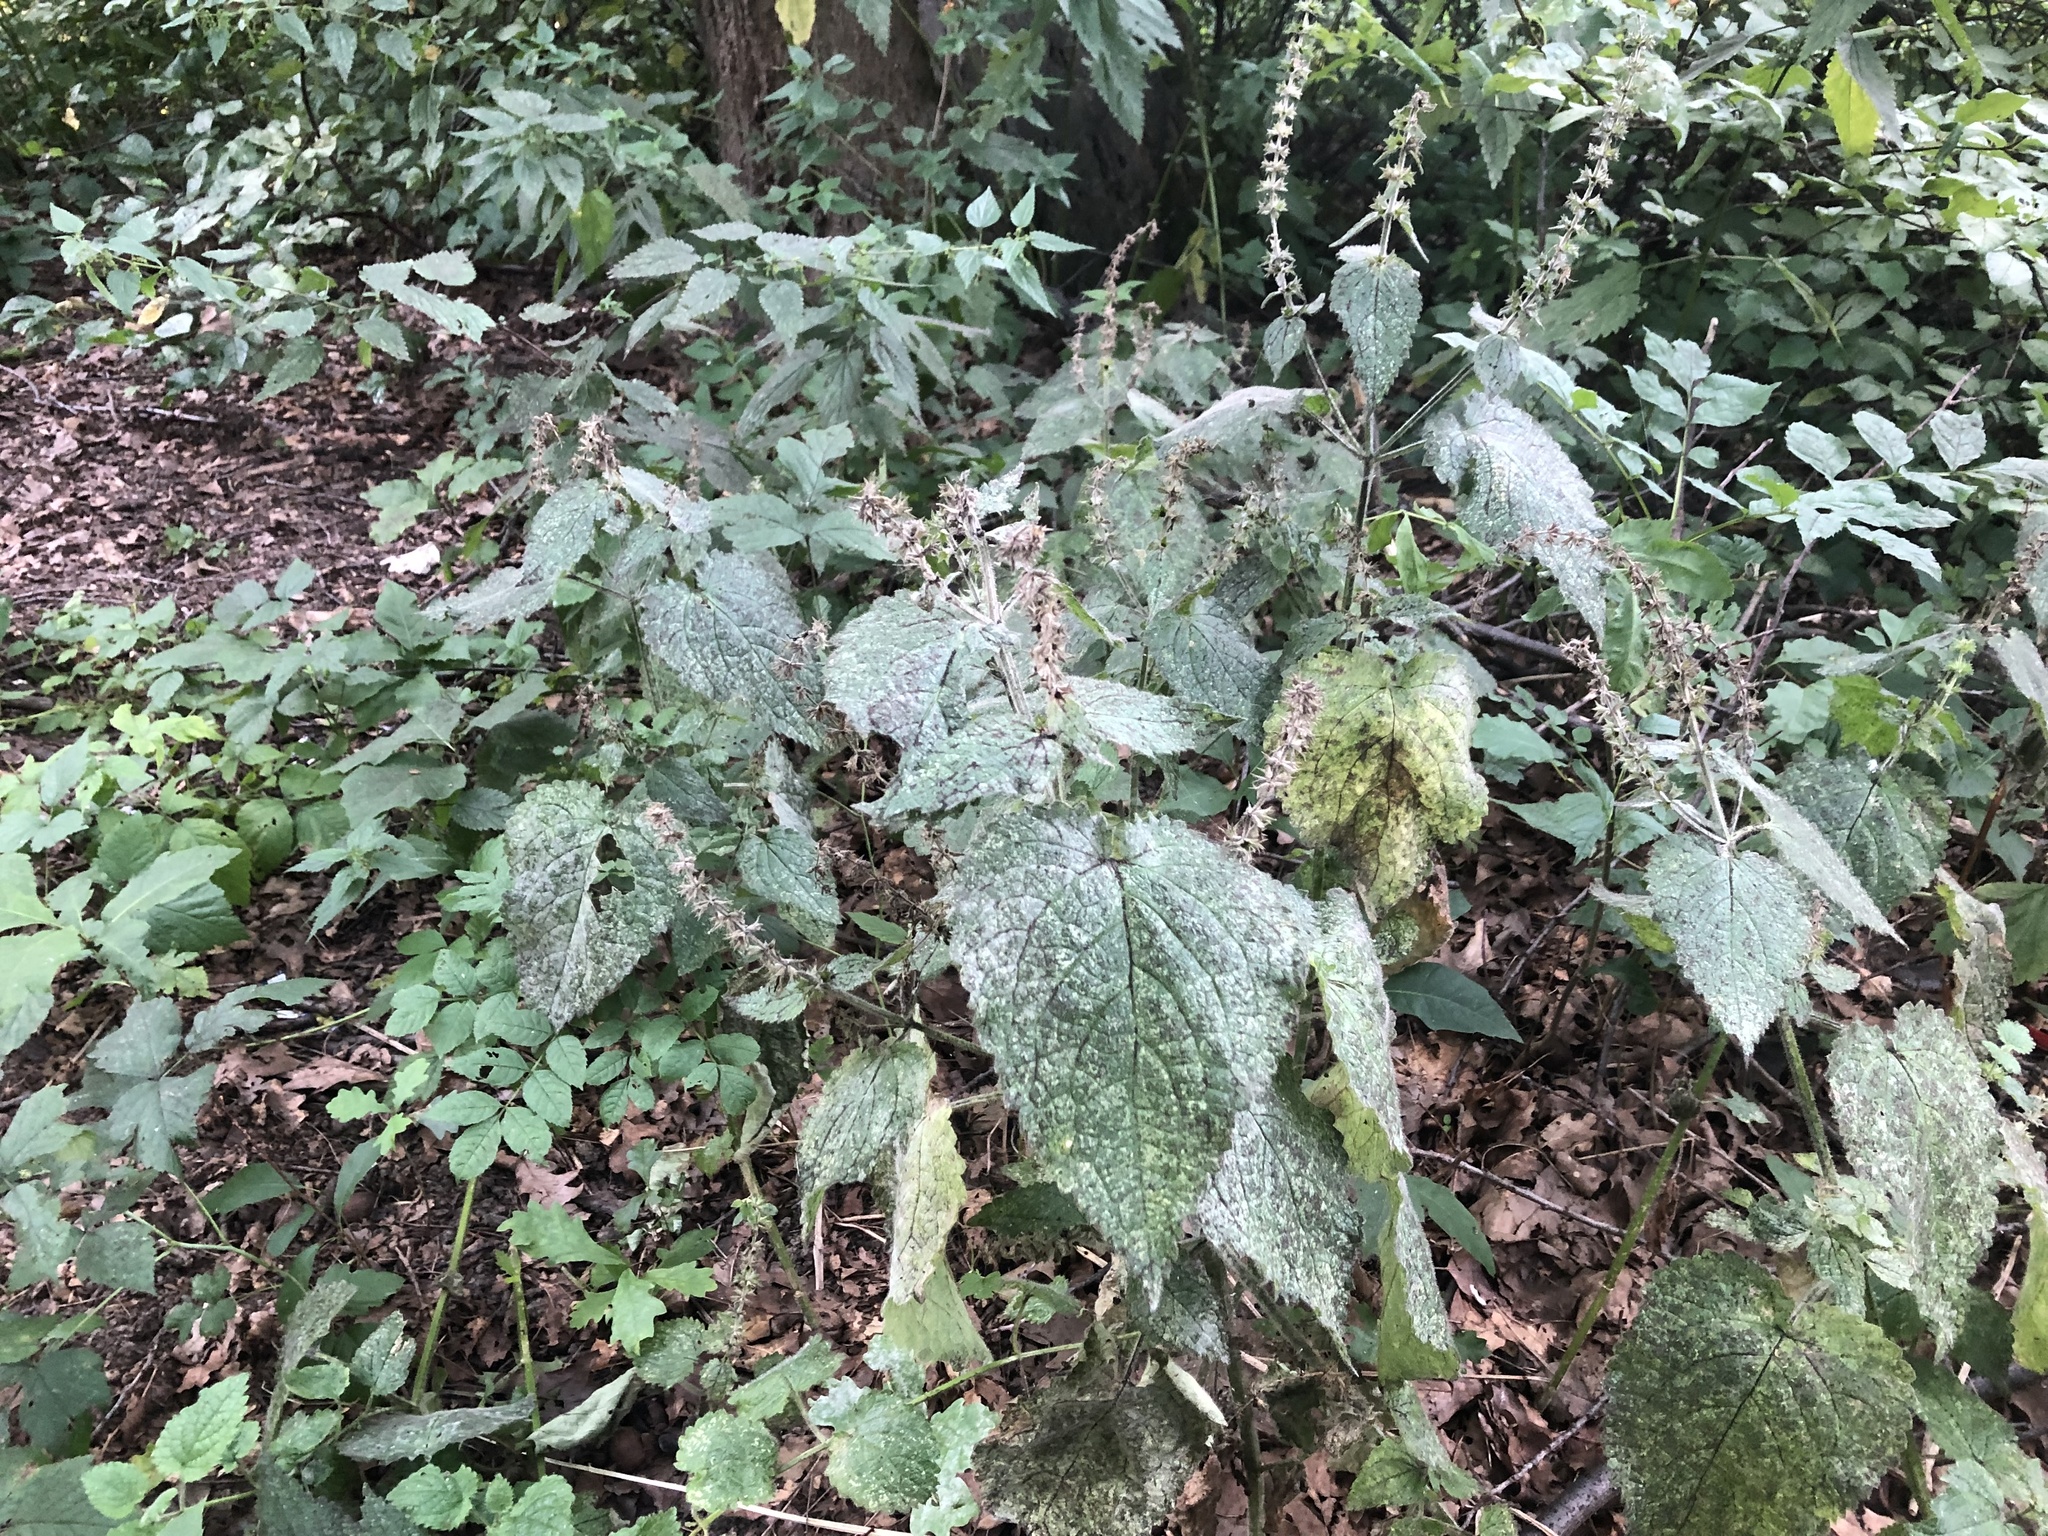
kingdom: Plantae
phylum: Tracheophyta
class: Magnoliopsida
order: Lamiales
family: Lamiaceae
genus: Stachys
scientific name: Stachys sylvatica
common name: Hedge woundwort
